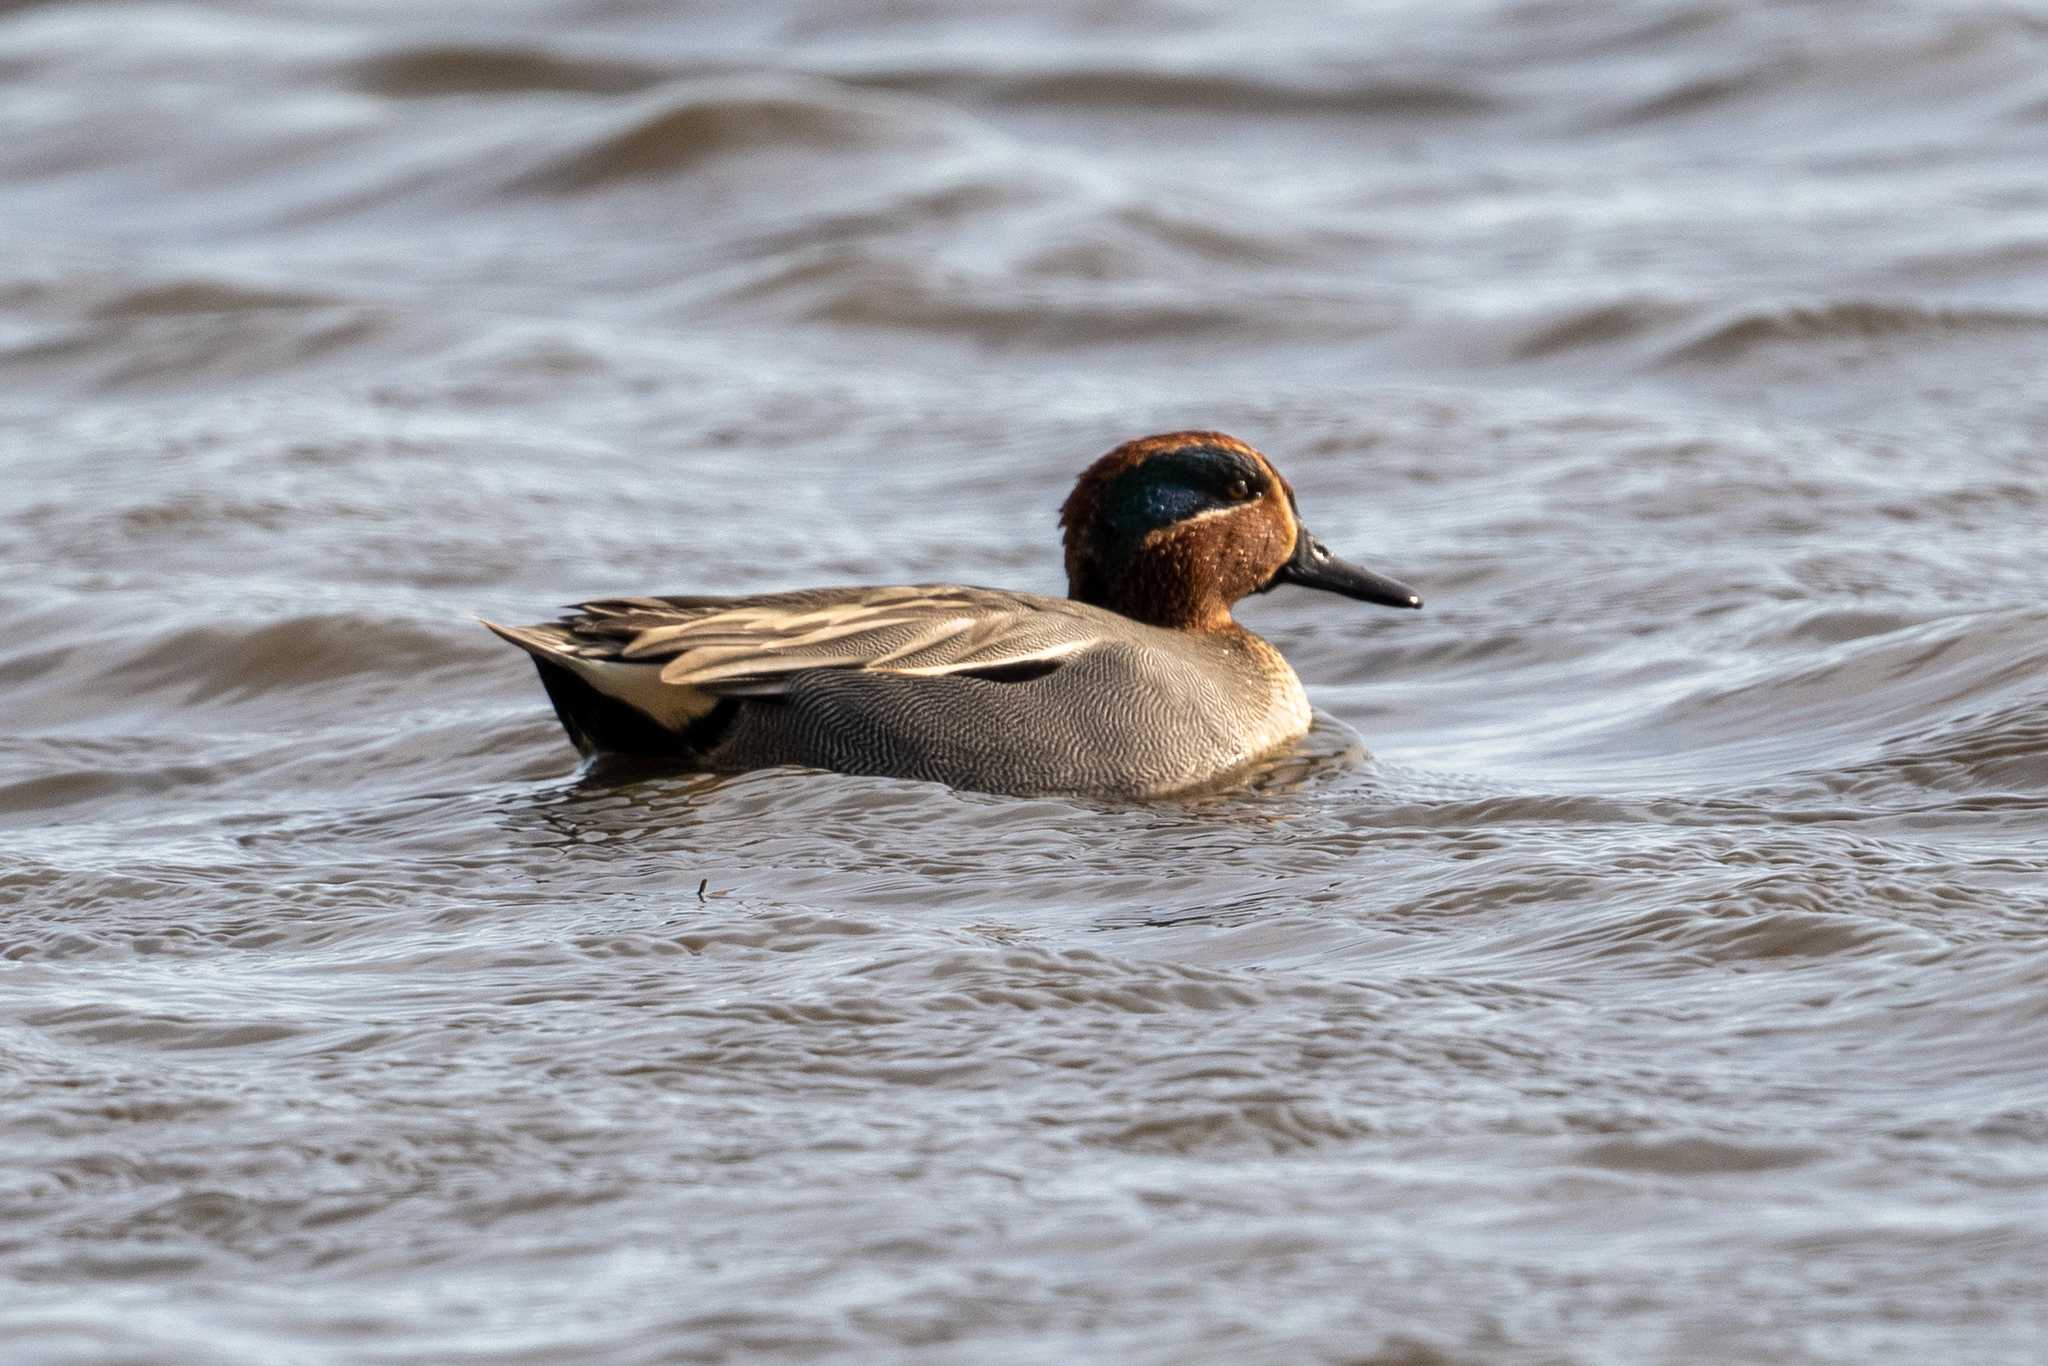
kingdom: Animalia
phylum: Chordata
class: Aves
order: Anseriformes
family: Anatidae
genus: Anas
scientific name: Anas crecca
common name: Eurasian teal
